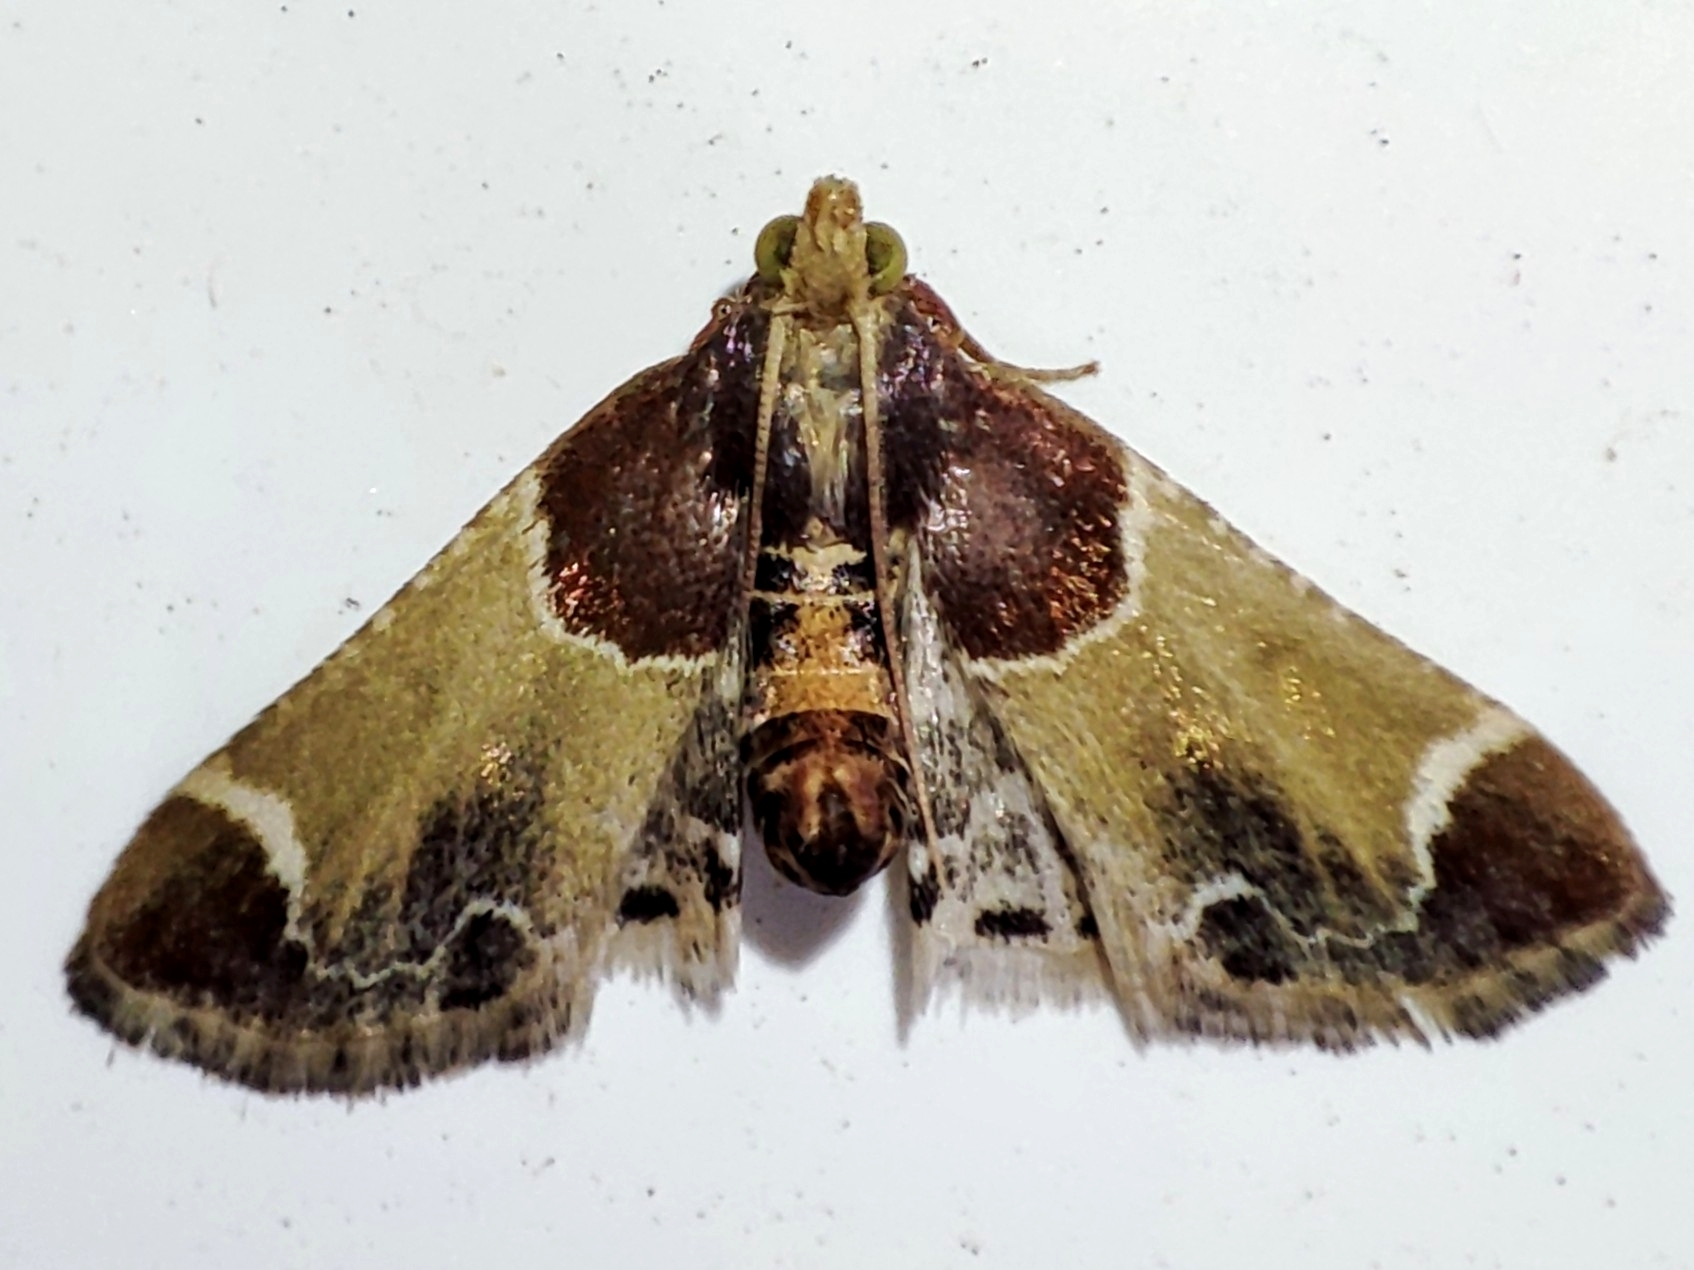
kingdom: Animalia
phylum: Arthropoda
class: Insecta
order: Lepidoptera
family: Pyralidae
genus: Pyralis
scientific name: Pyralis farinalis
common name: Meal moth
